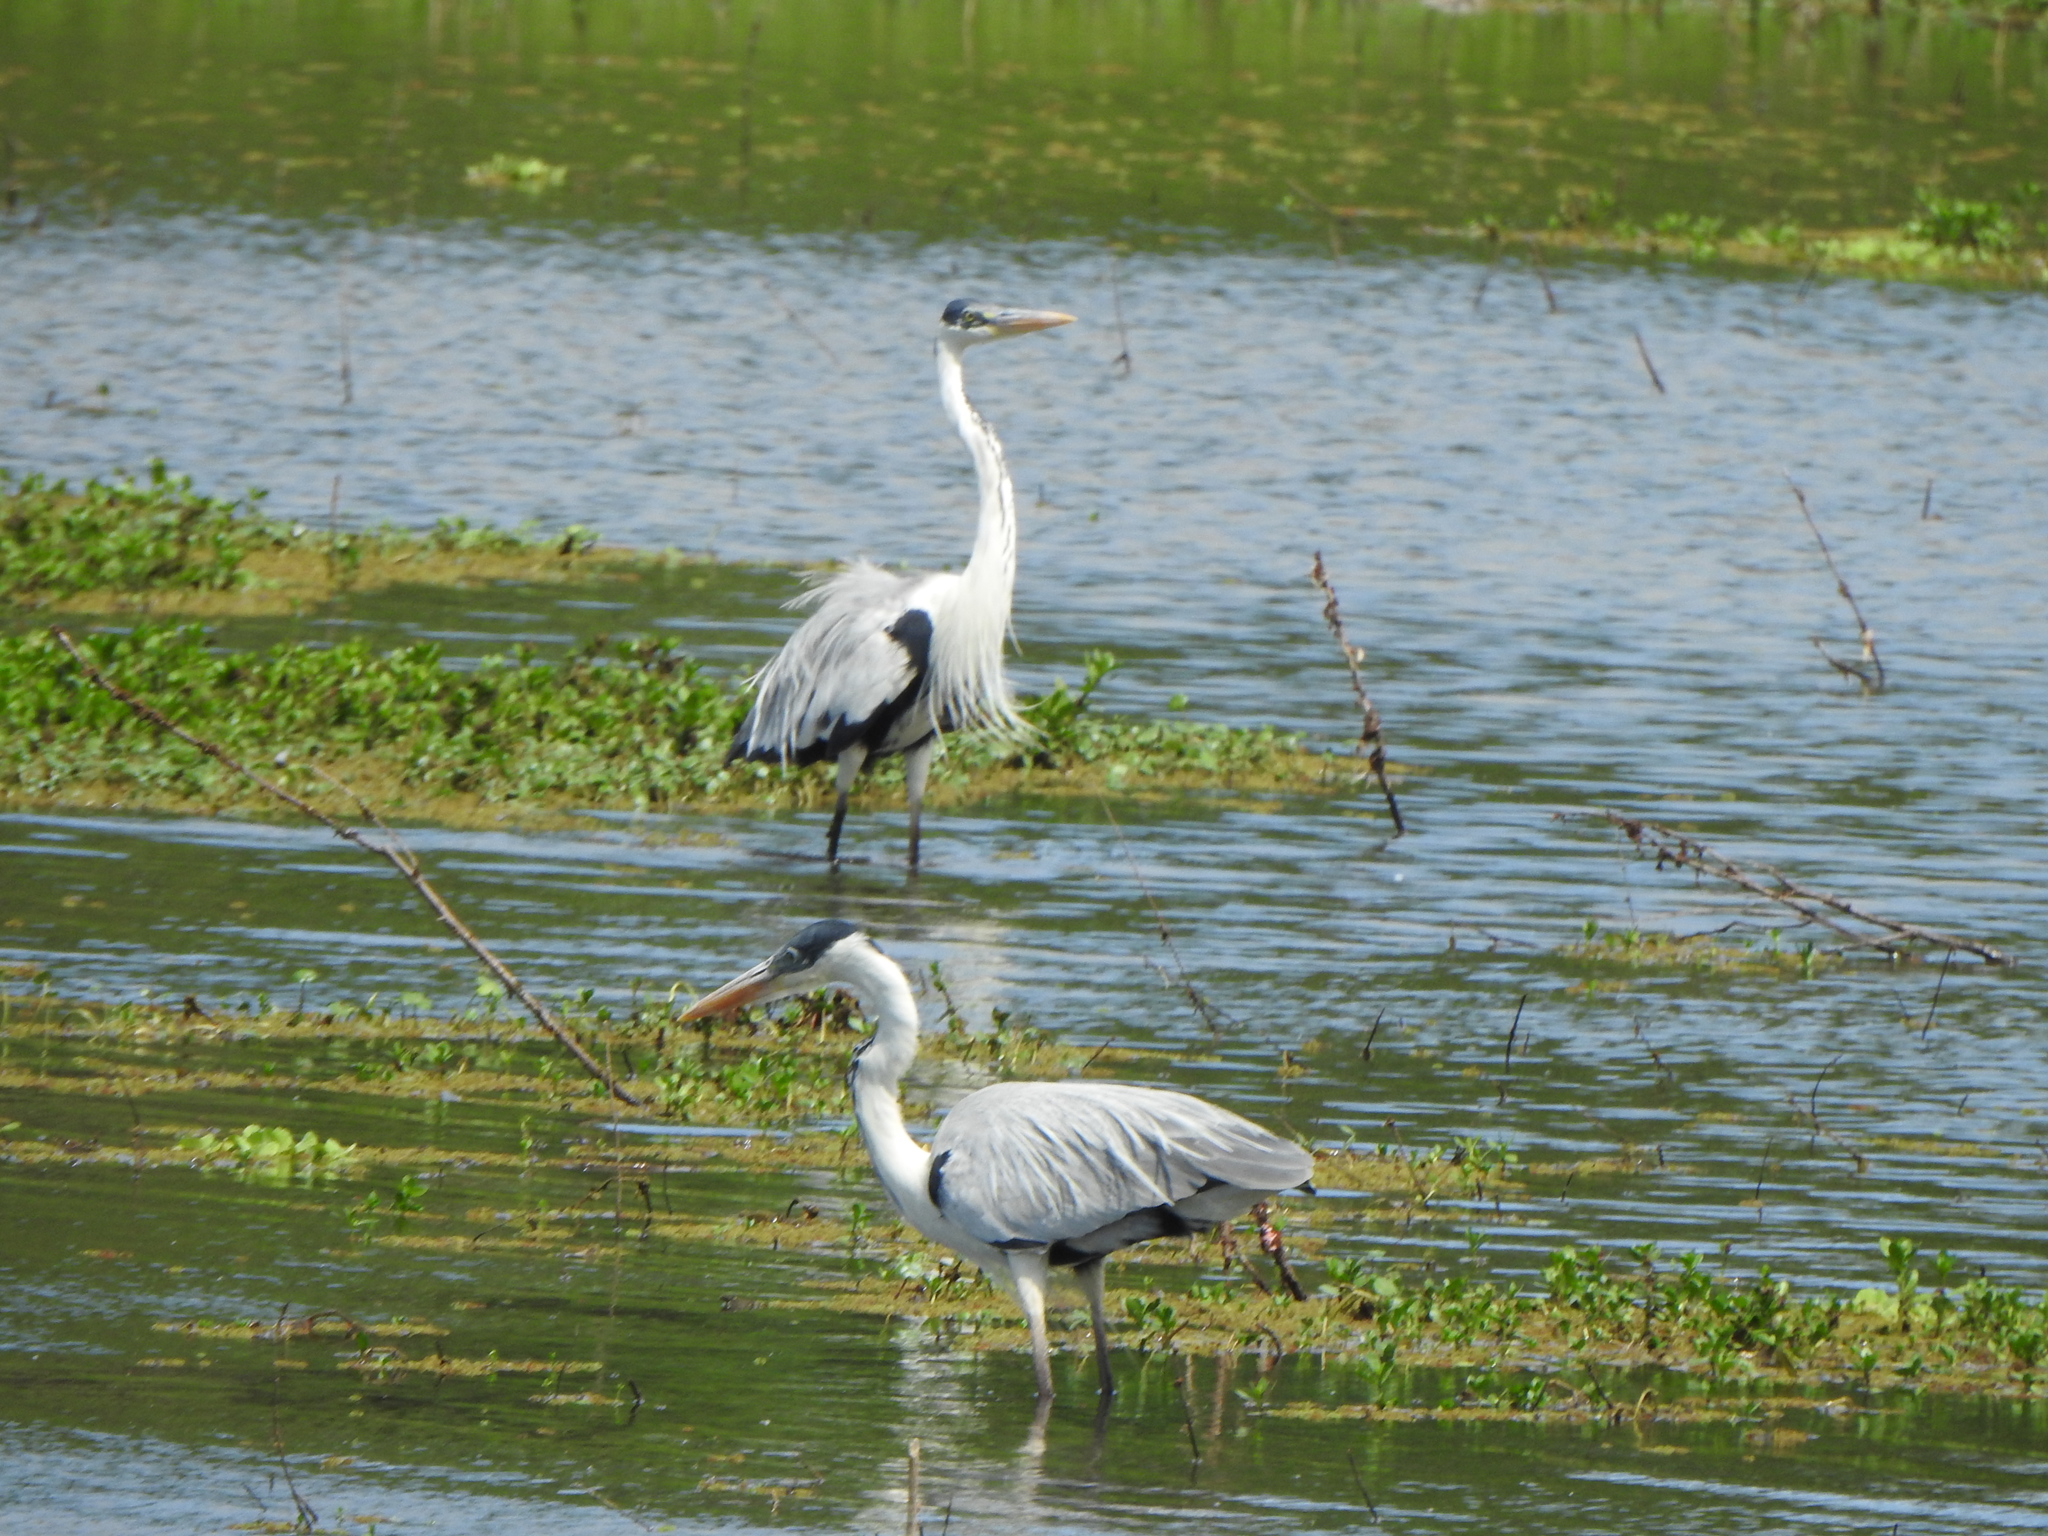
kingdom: Animalia
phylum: Chordata
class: Aves
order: Pelecaniformes
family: Ardeidae
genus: Ardea
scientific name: Ardea cocoi
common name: Cocoi heron
